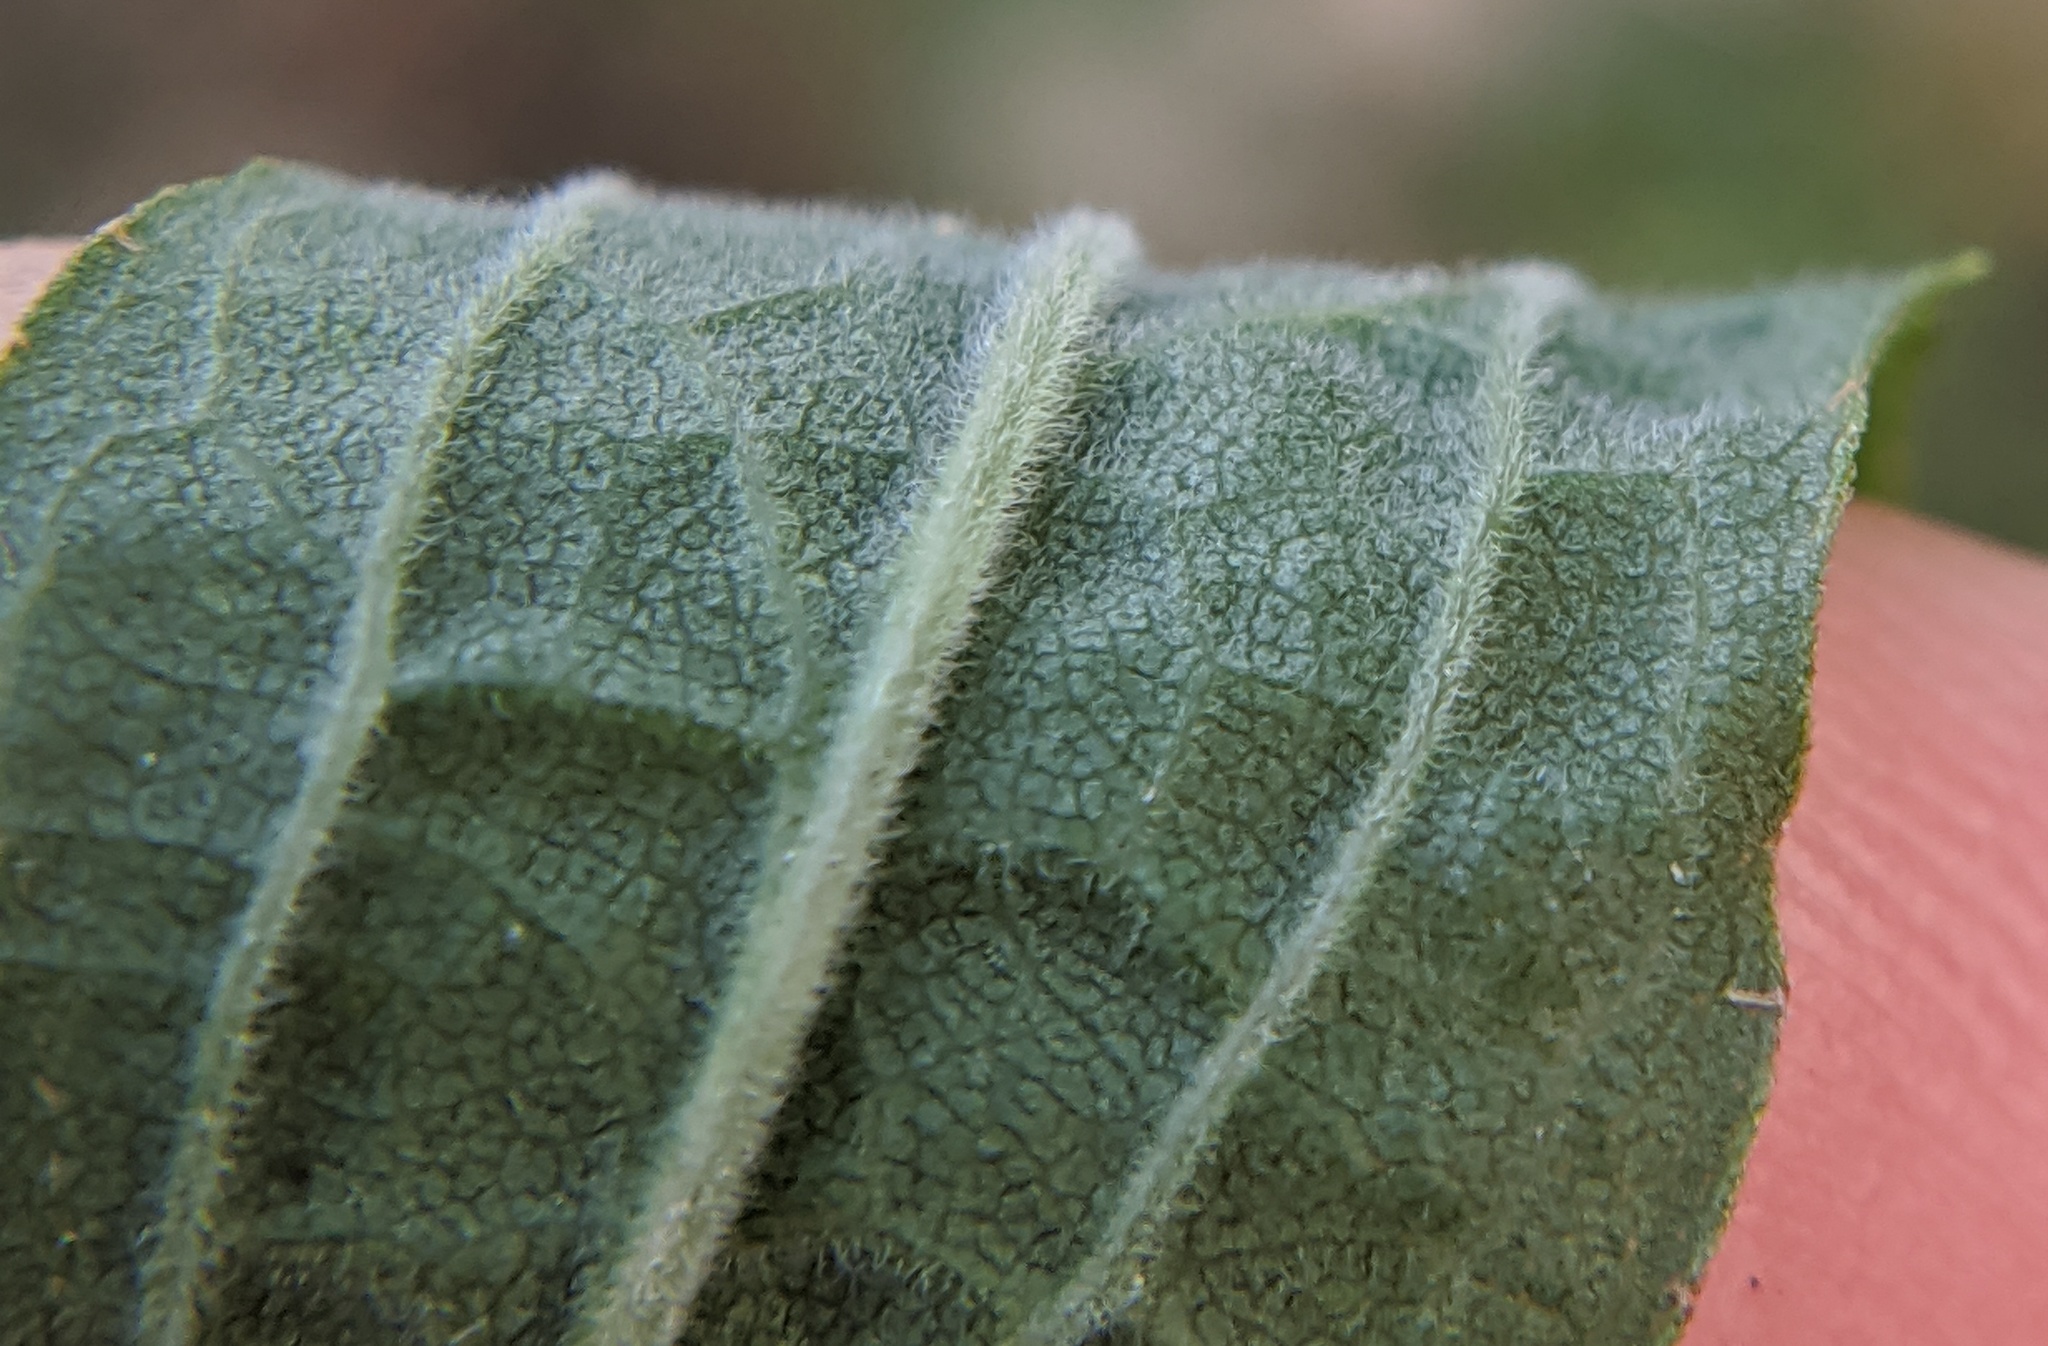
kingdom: Plantae
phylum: Tracheophyta
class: Magnoliopsida
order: Asterales
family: Asteraceae
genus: Solidago
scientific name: Solidago altissima
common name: Late goldenrod
